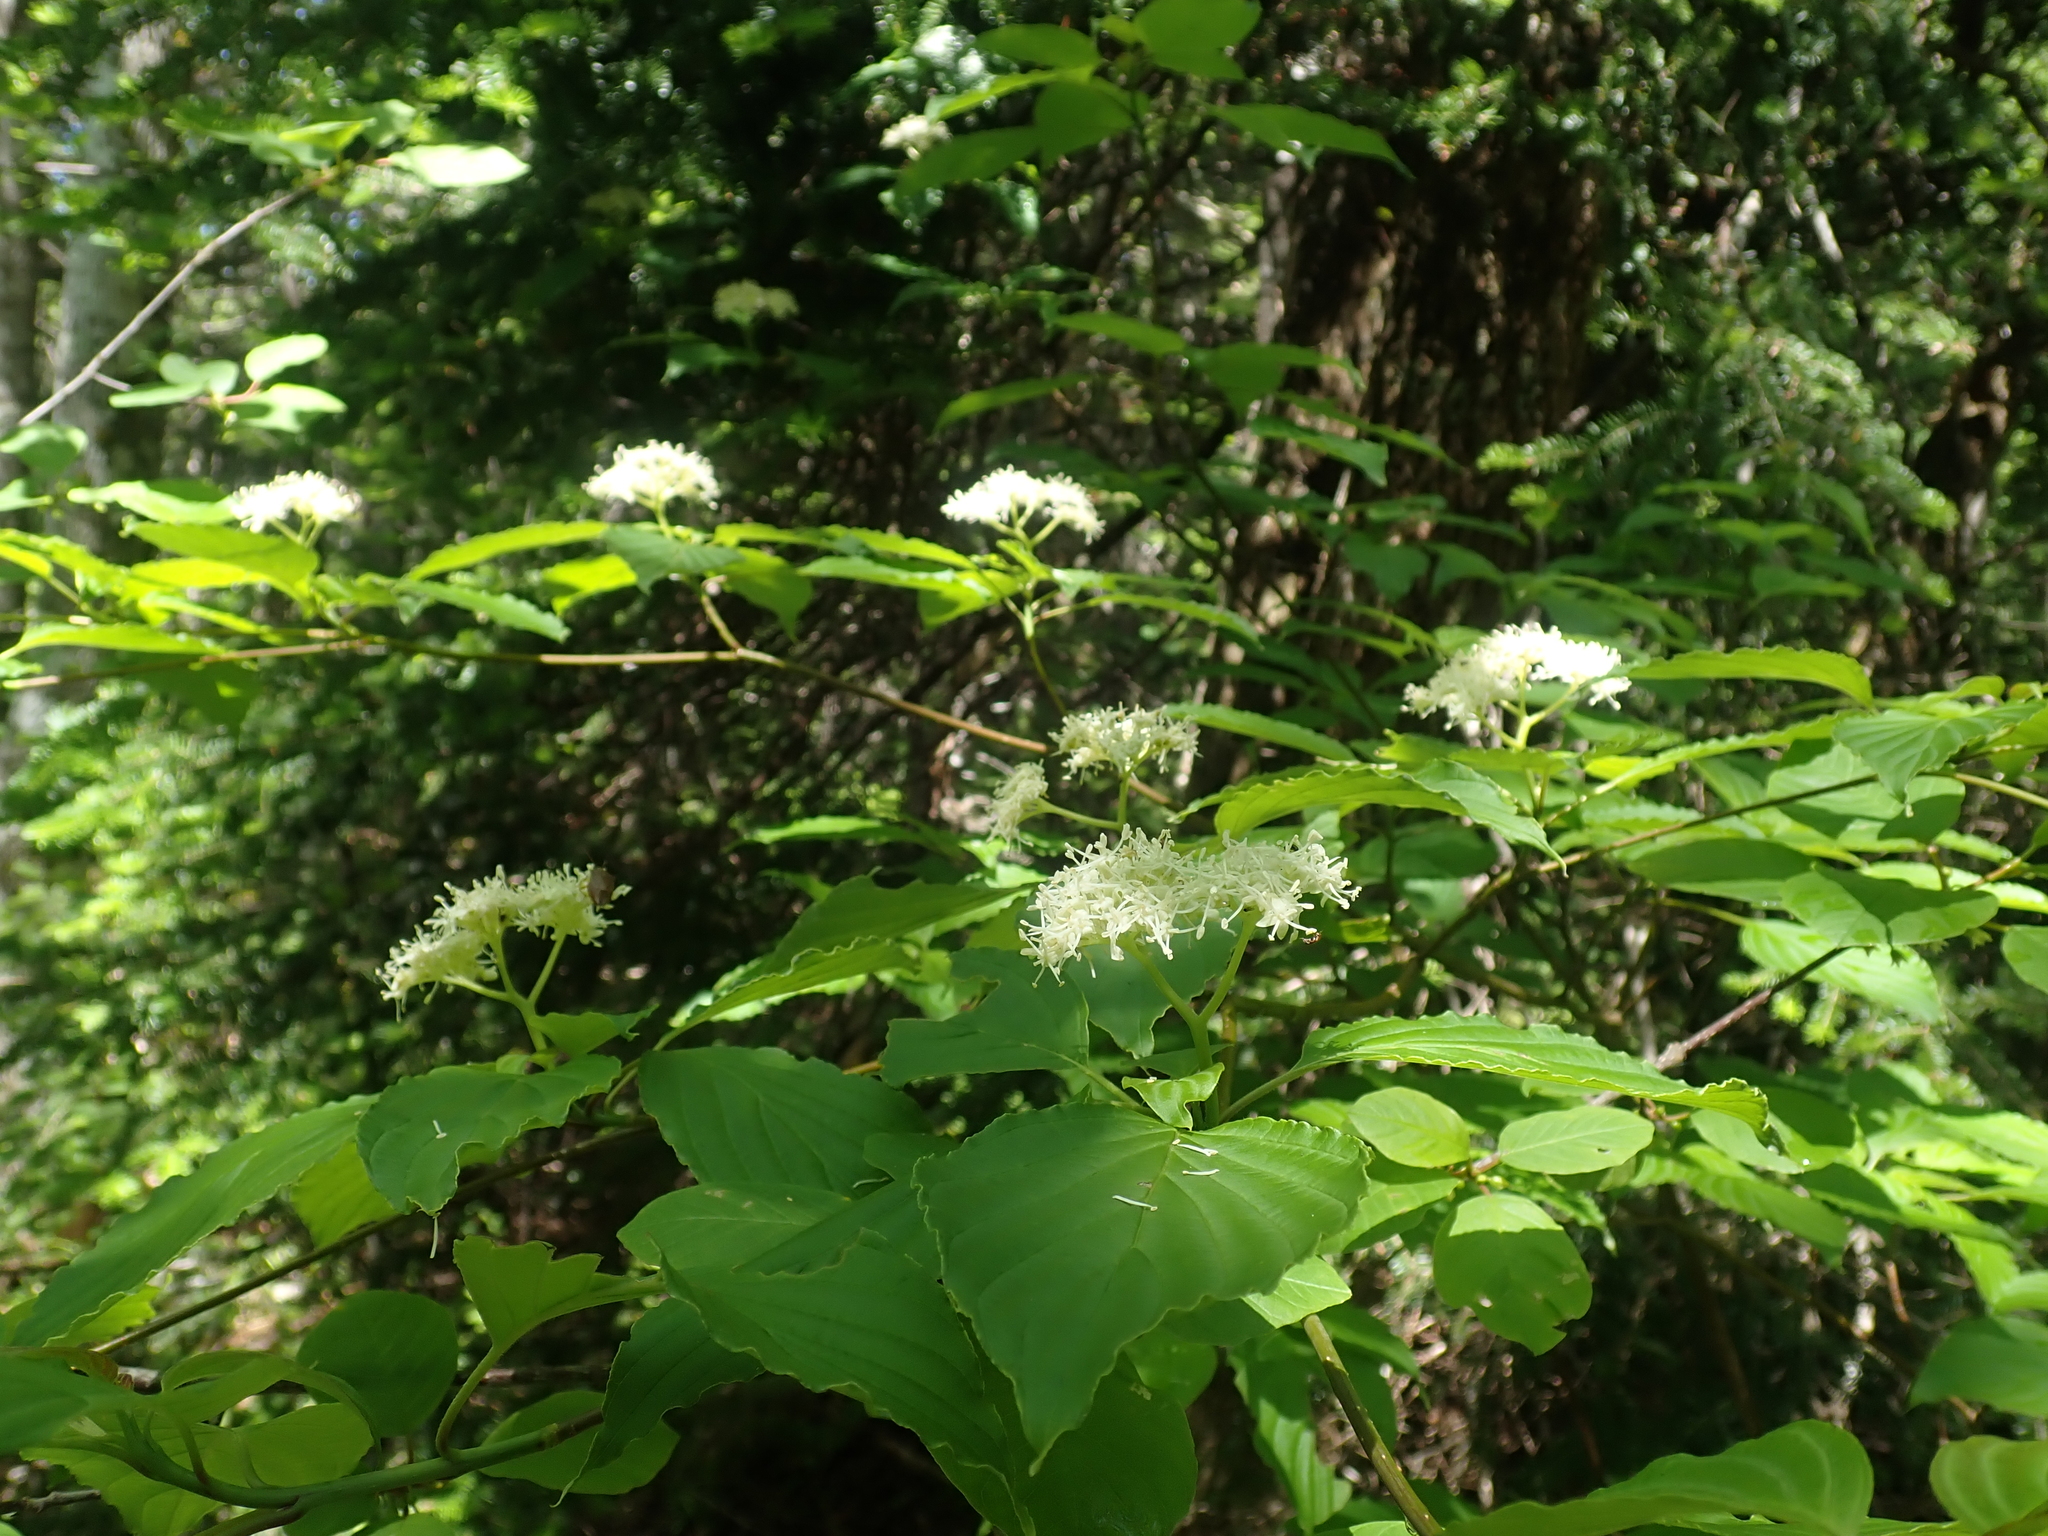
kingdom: Plantae
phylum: Tracheophyta
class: Magnoliopsida
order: Cornales
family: Cornaceae
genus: Cornus
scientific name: Cornus alternifolia
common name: Pagoda dogwood
